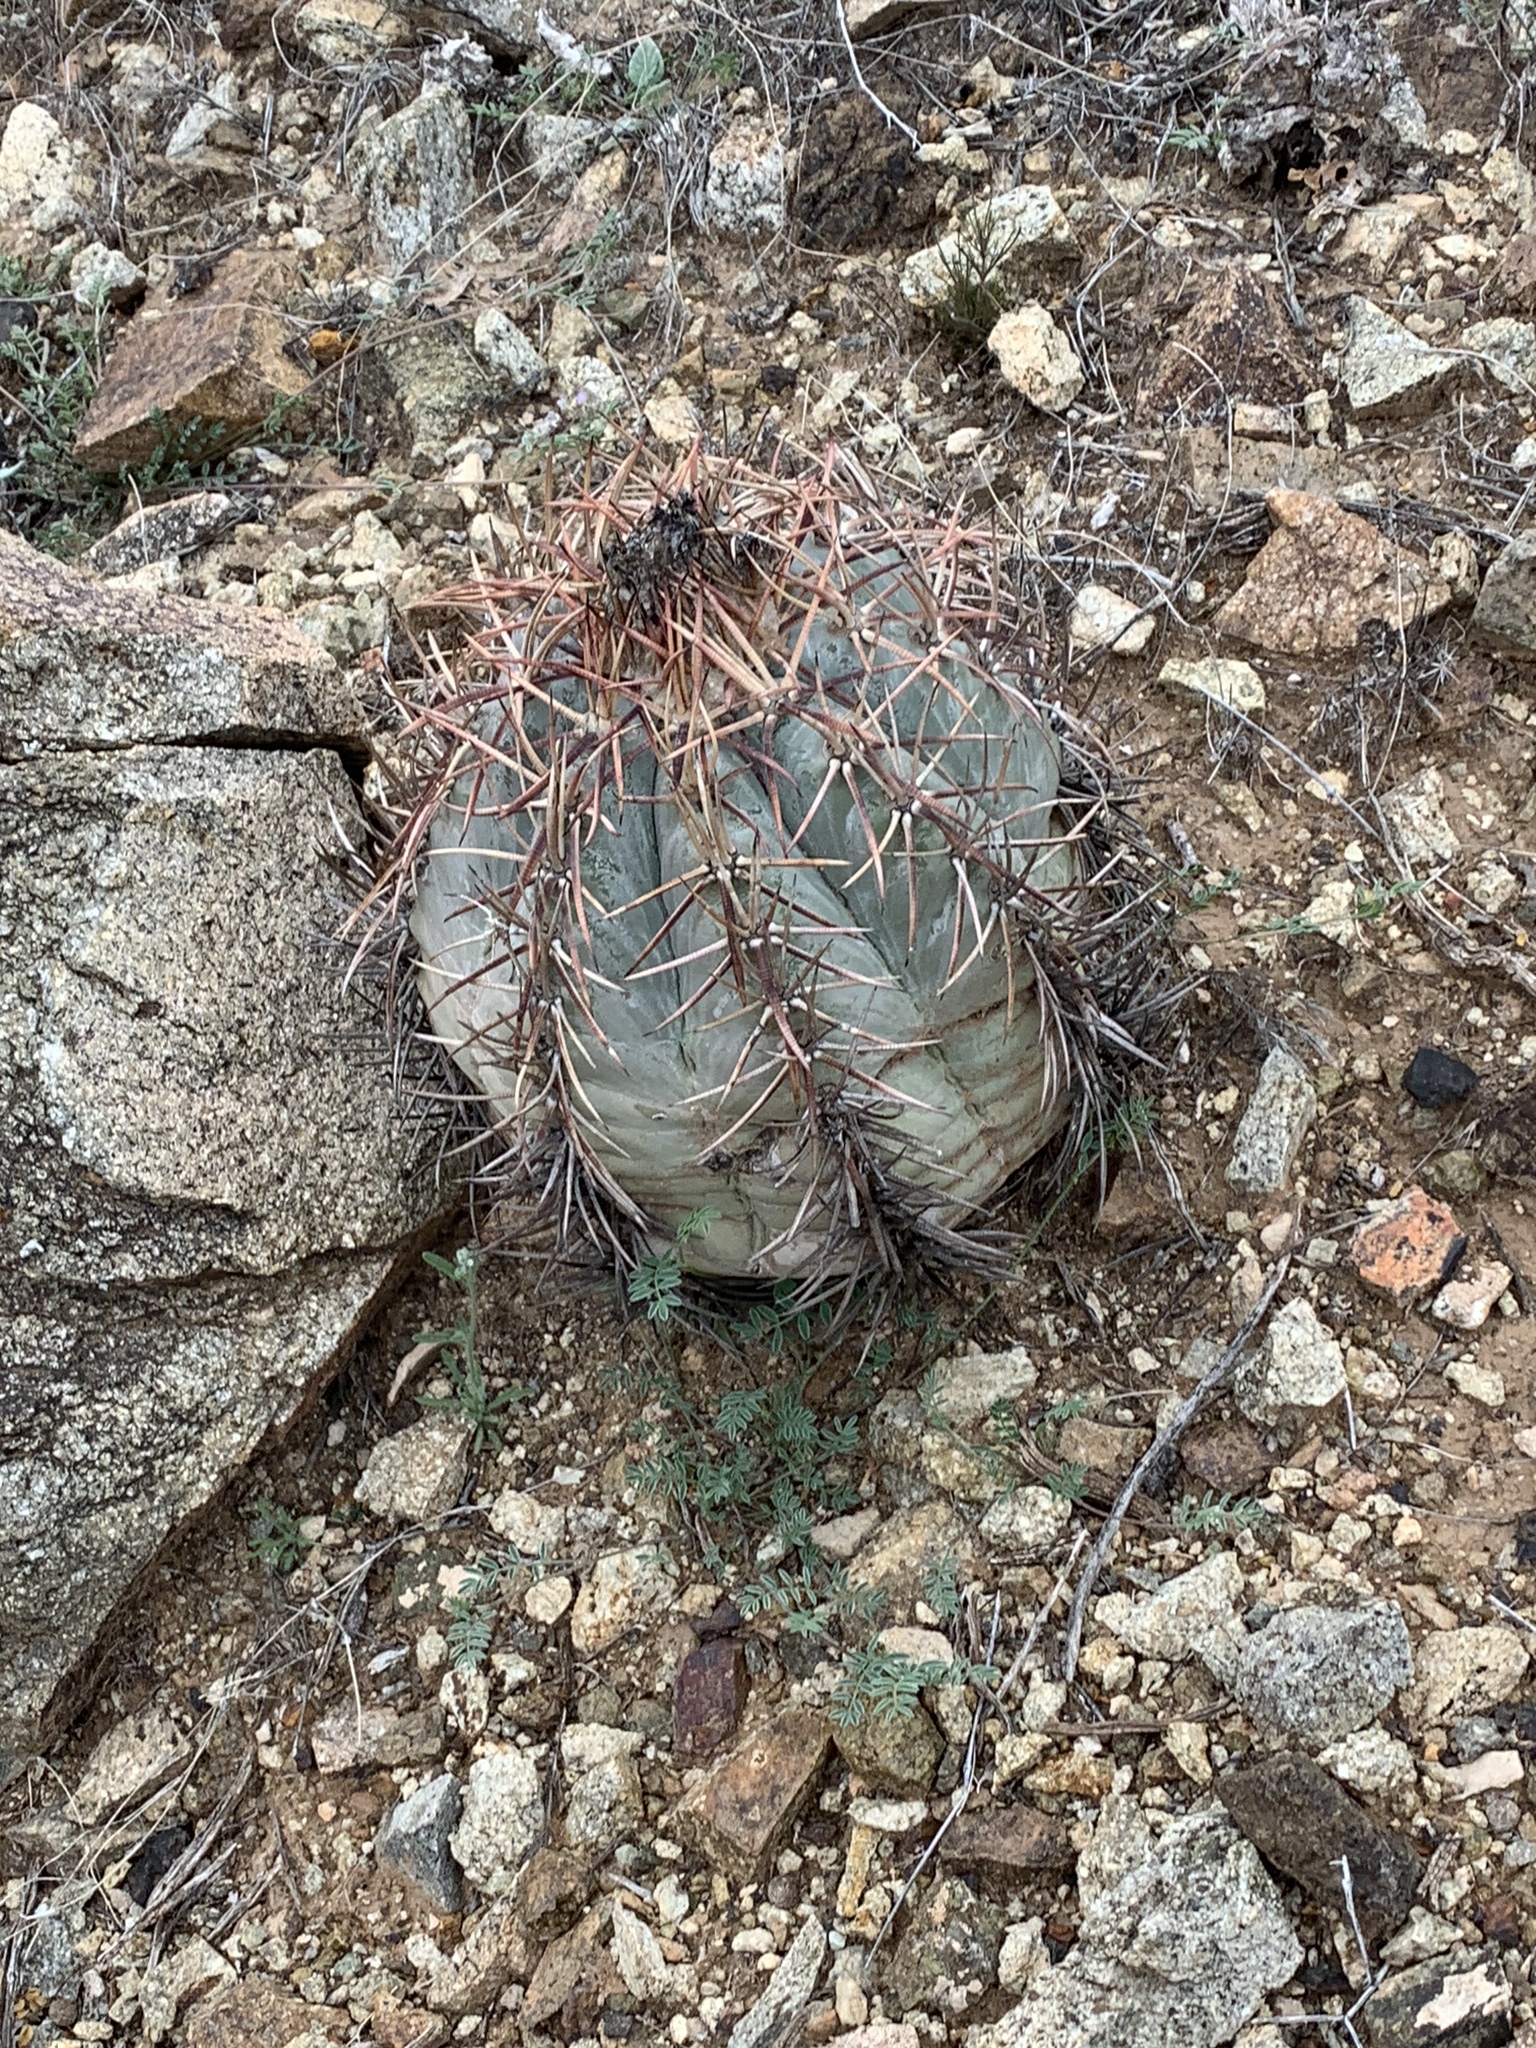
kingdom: Plantae
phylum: Tracheophyta
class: Magnoliopsida
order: Caryophyllales
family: Cactaceae
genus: Echinocactus
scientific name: Echinocactus horizonthalonius
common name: Devilshead
